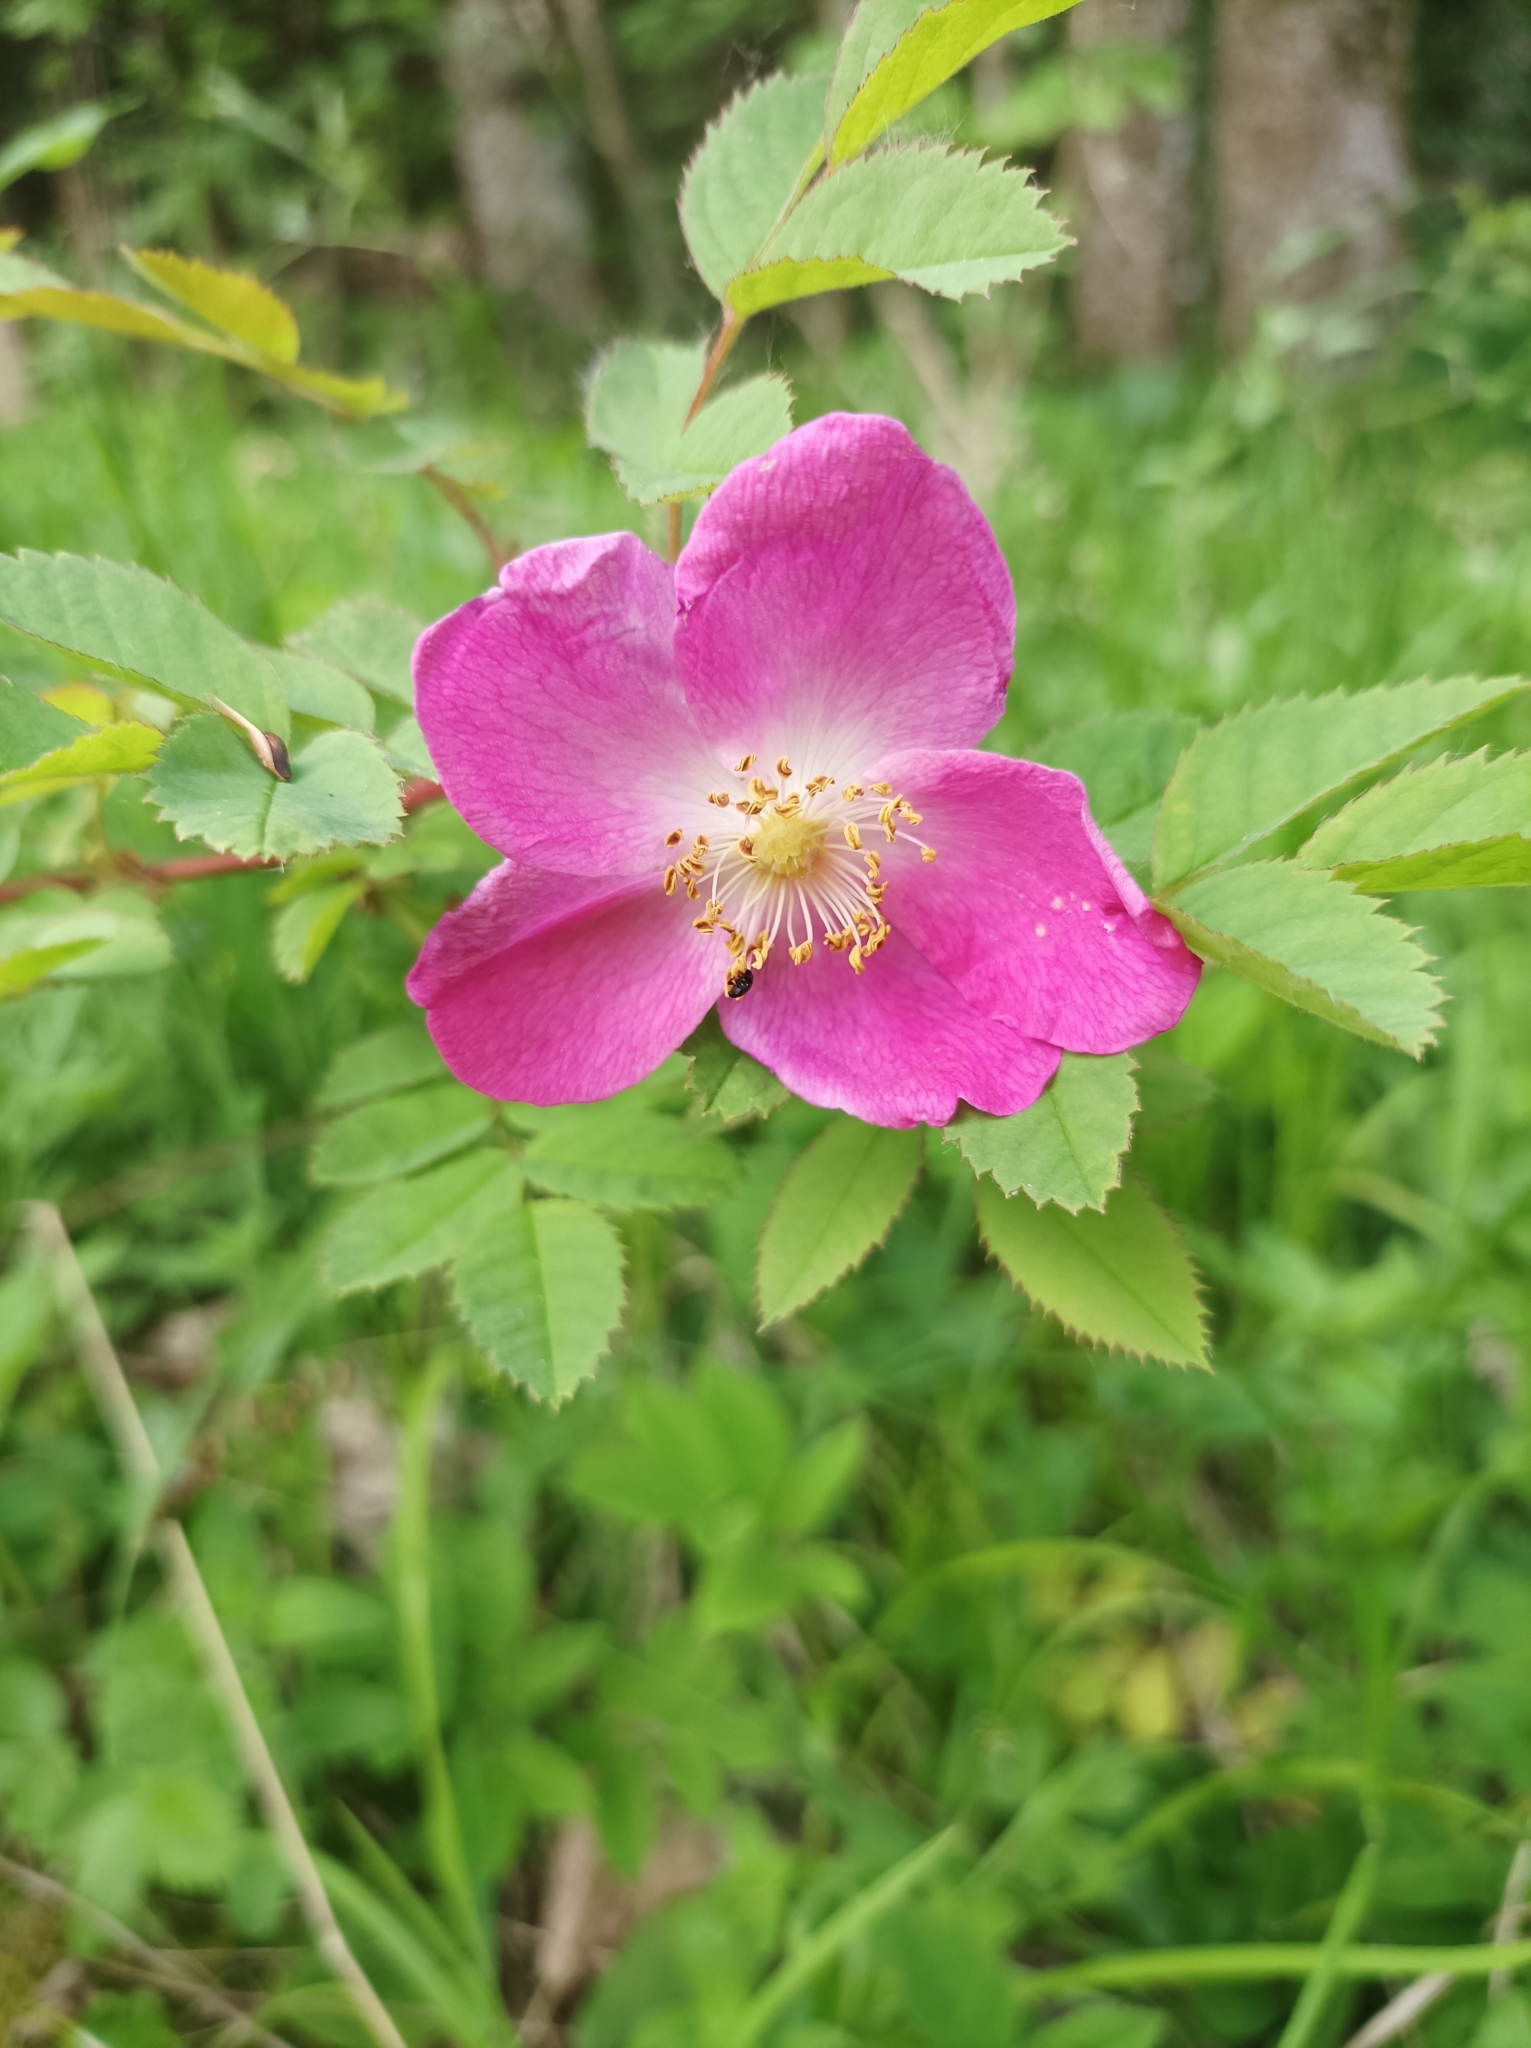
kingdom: Plantae
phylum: Tracheophyta
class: Magnoliopsida
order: Rosales
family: Rosaceae
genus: Rosa
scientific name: Rosa pendulina
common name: Alpine rose
